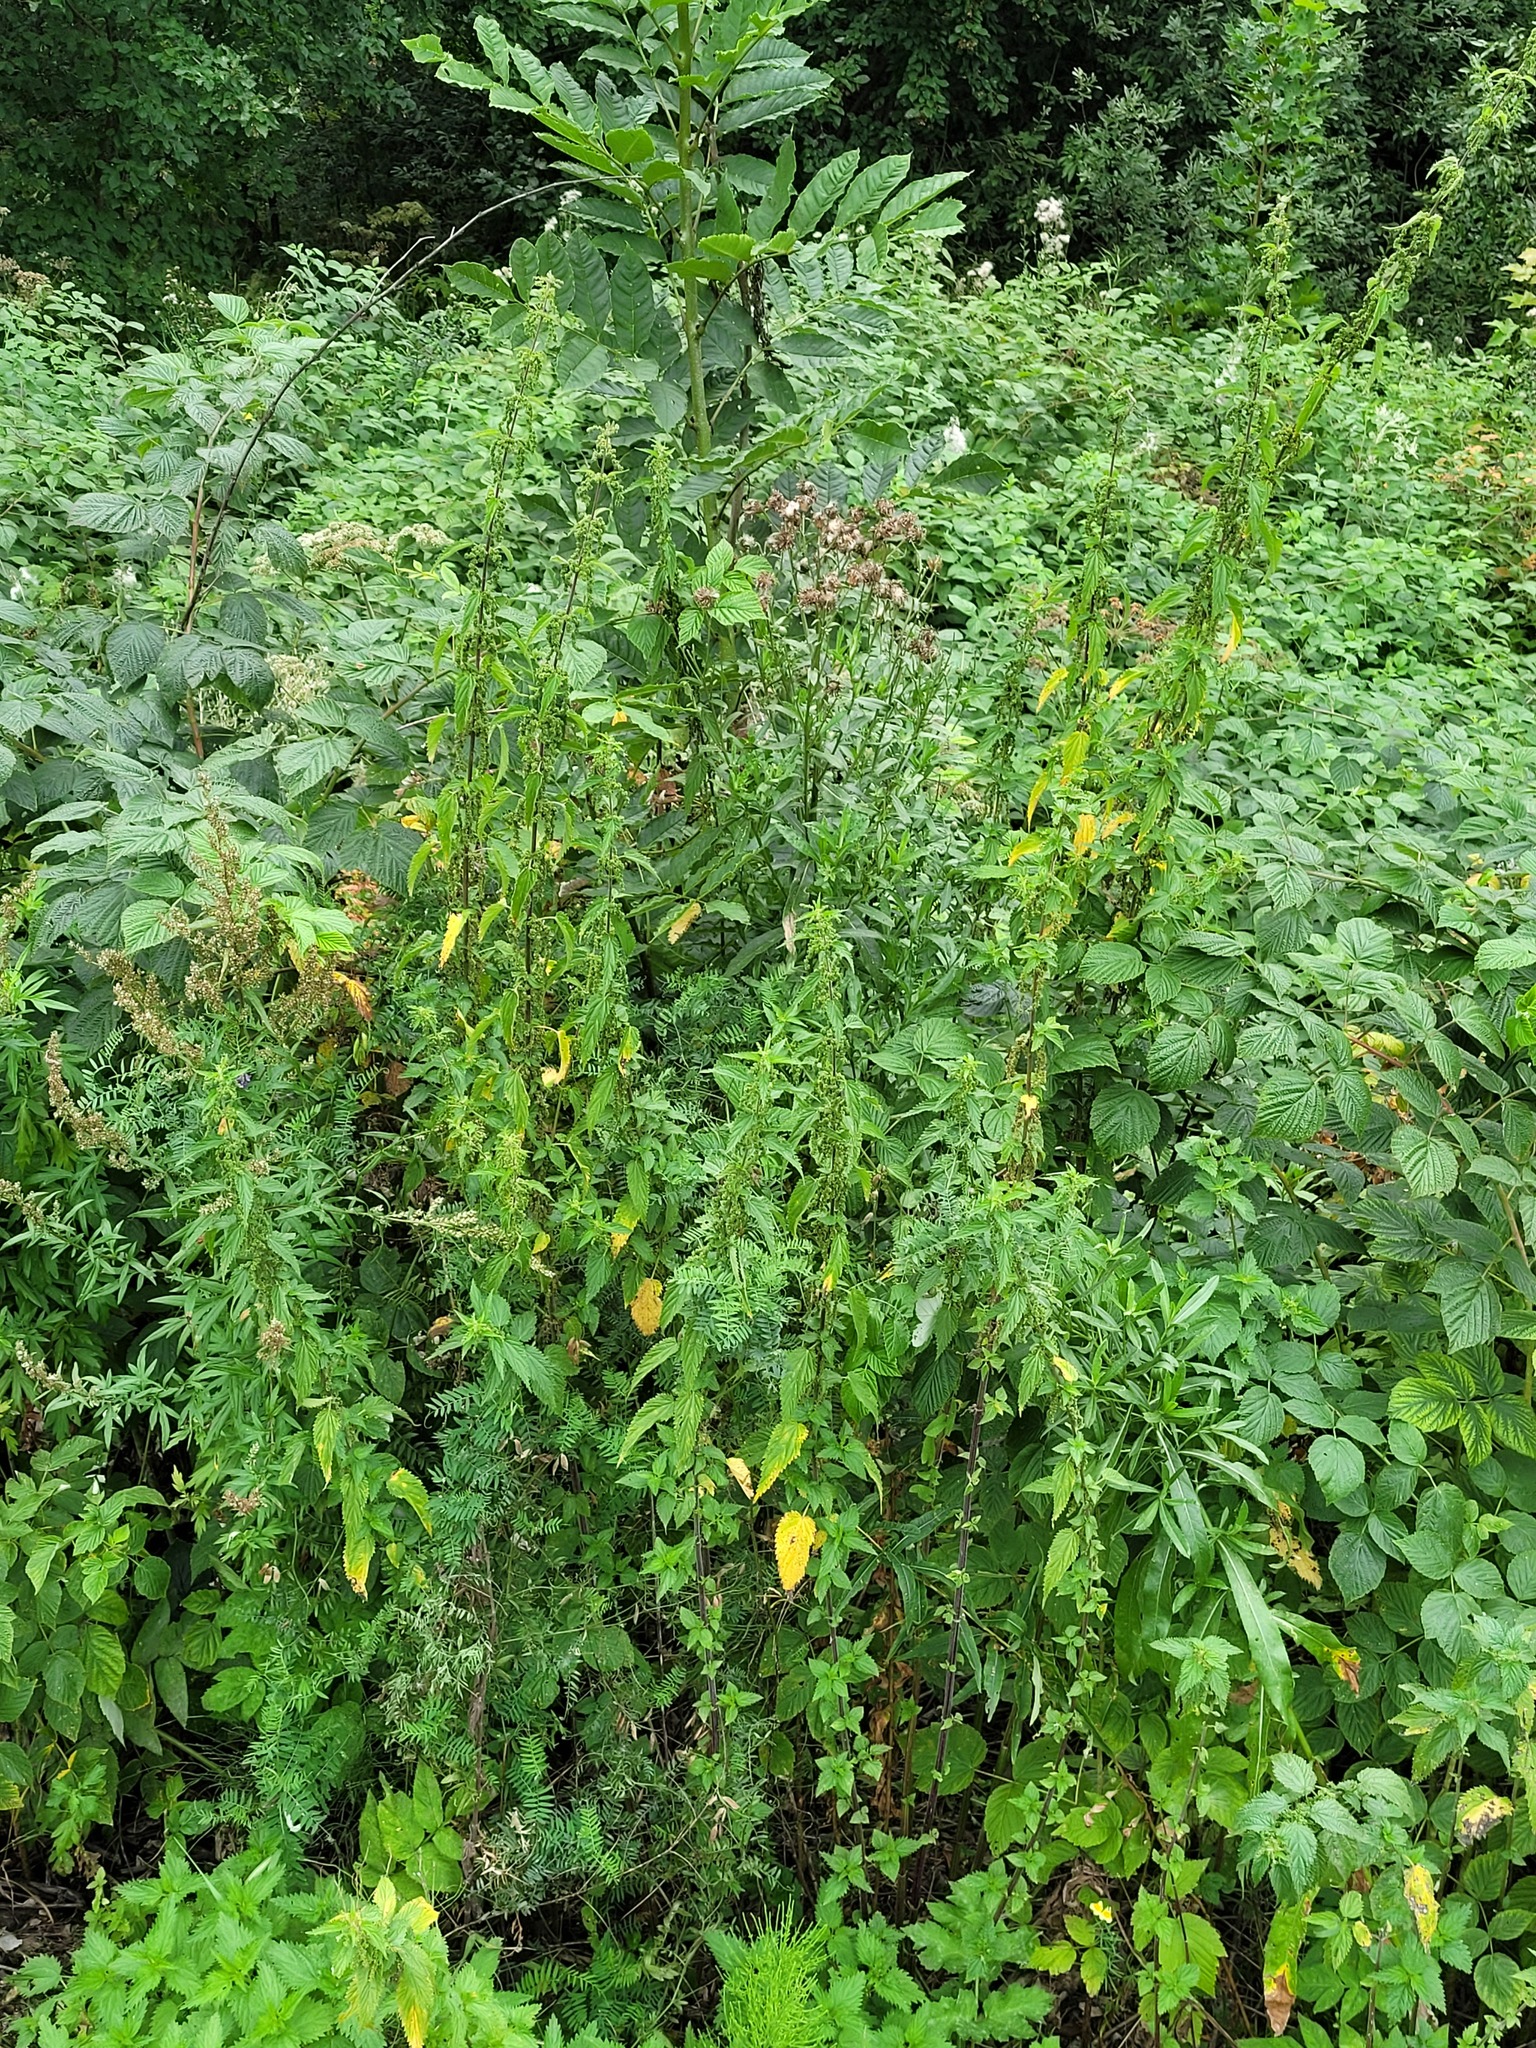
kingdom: Plantae
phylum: Tracheophyta
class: Magnoliopsida
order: Rosales
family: Urticaceae
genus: Urtica
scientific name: Urtica dioica
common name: Common nettle
